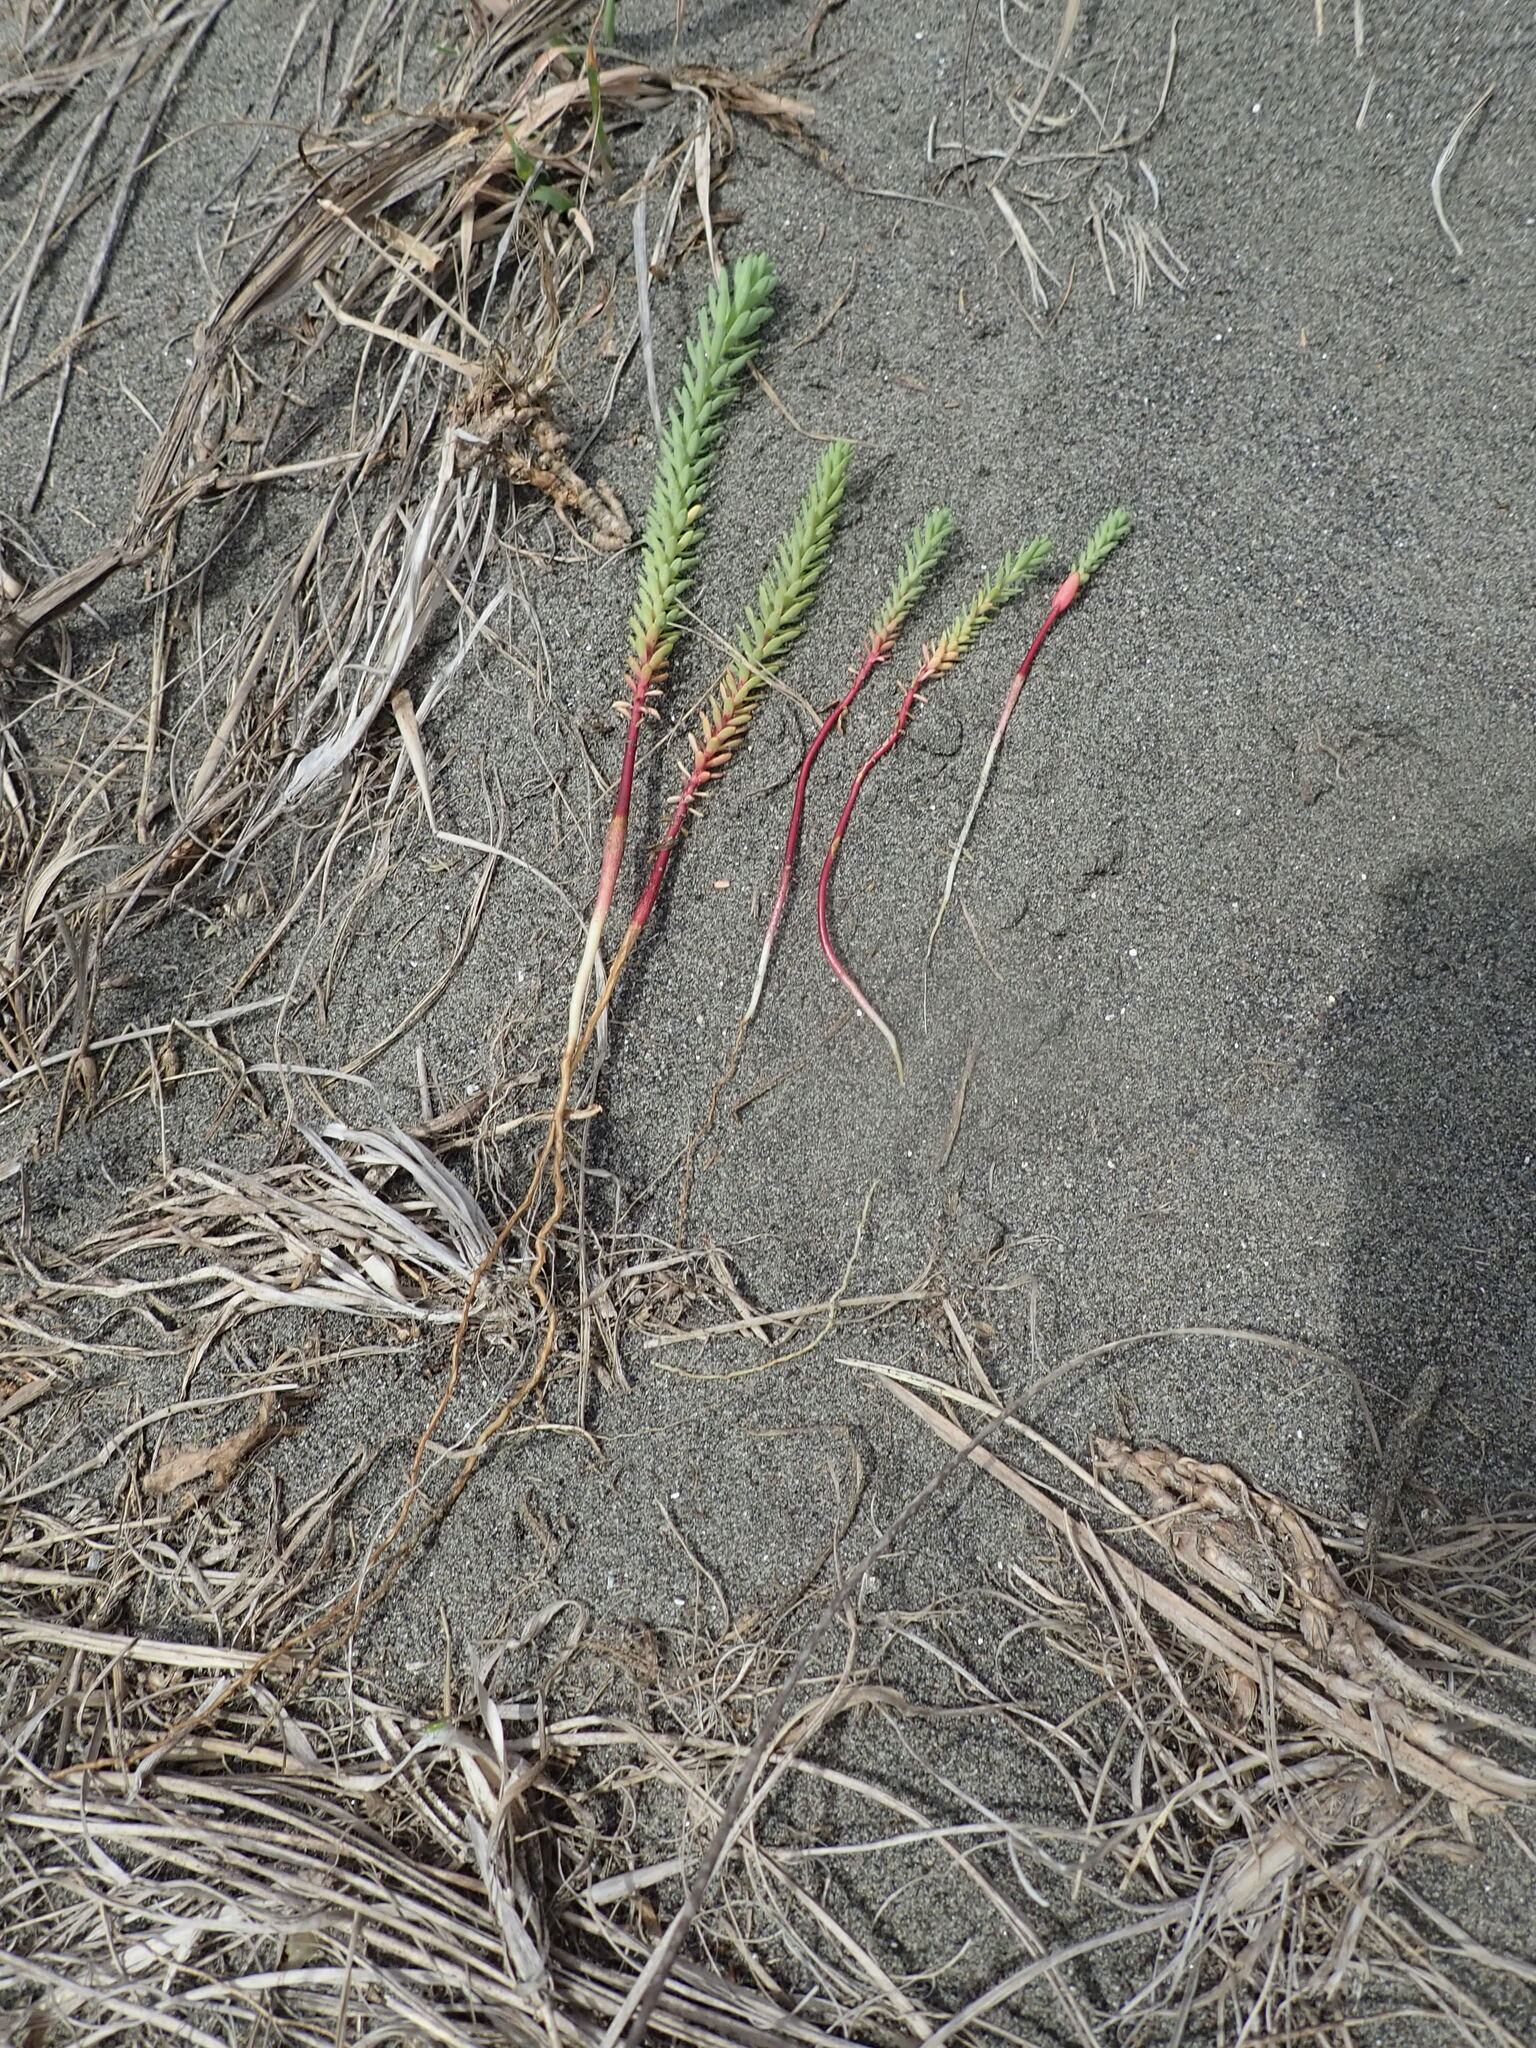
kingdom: Plantae
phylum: Tracheophyta
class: Magnoliopsida
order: Malpighiales
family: Euphorbiaceae
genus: Euphorbia
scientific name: Euphorbia paralias
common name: Sea spurge
